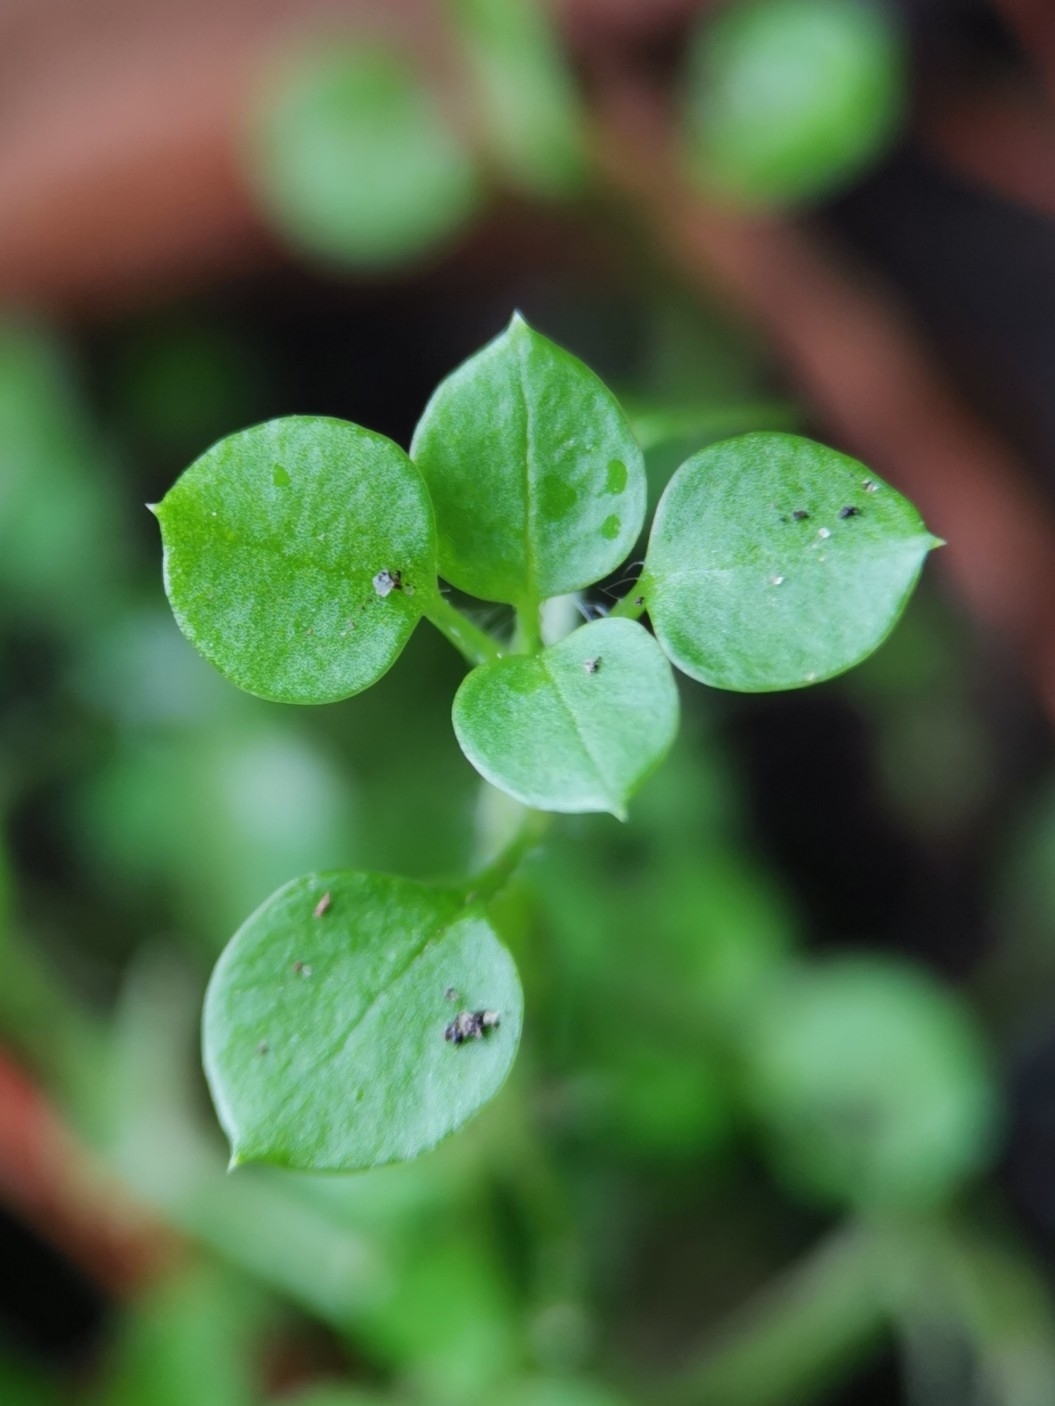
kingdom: Plantae
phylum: Tracheophyta
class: Magnoliopsida
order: Caryophyllales
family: Caryophyllaceae
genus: Stellaria
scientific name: Stellaria media
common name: Common chickweed
